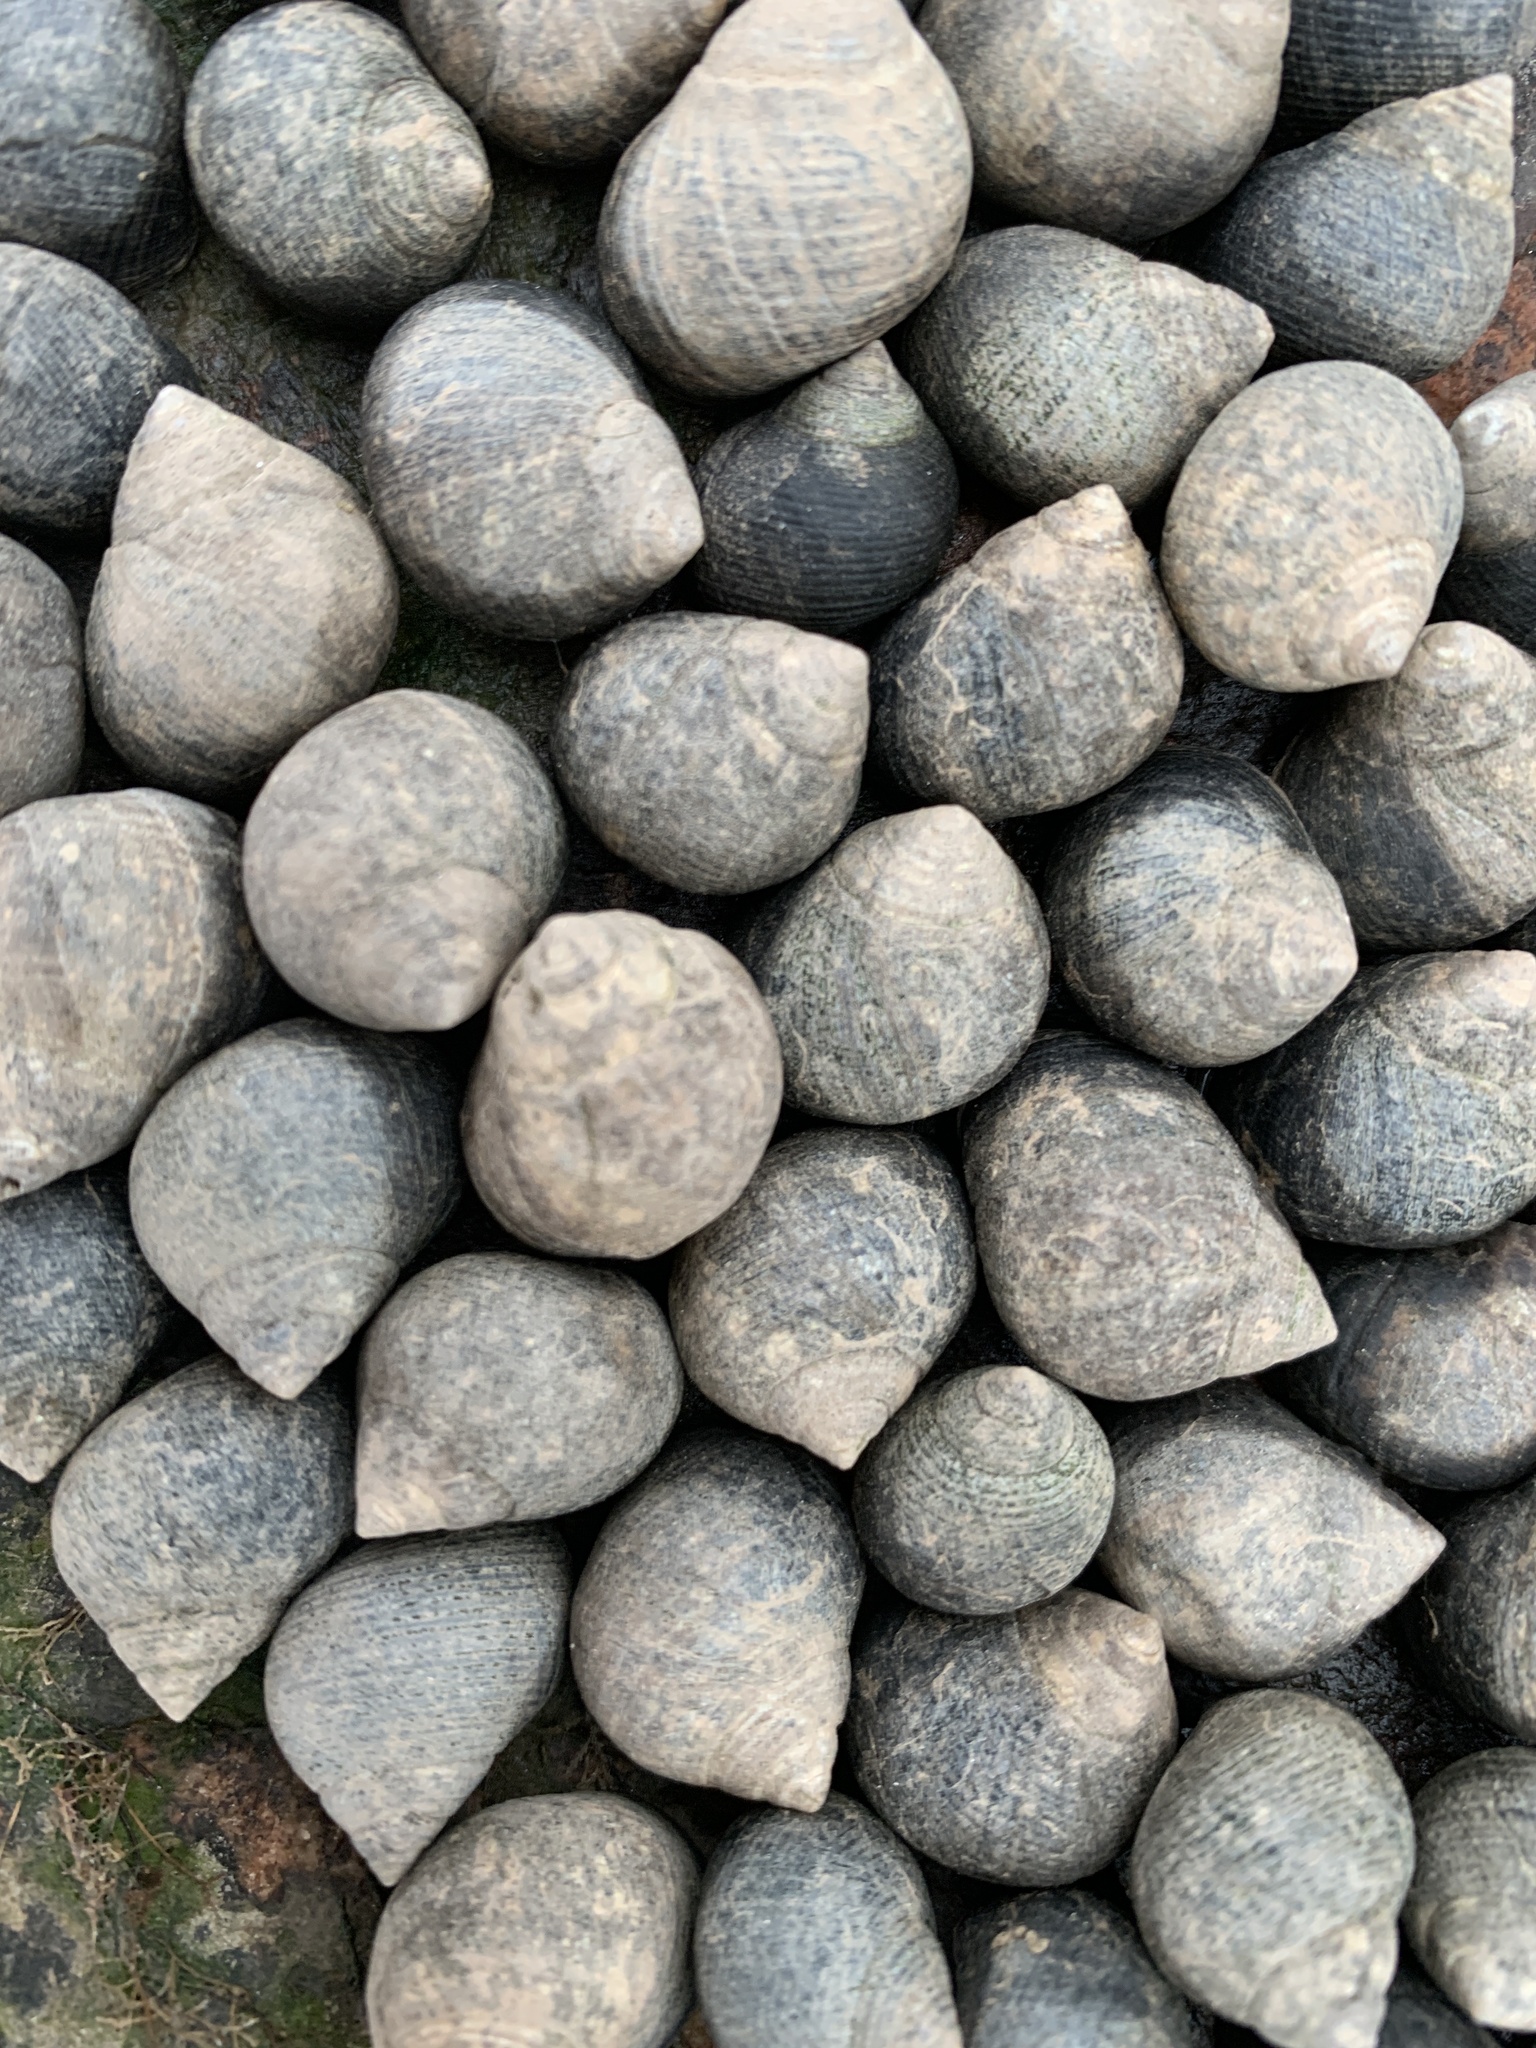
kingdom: Animalia
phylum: Mollusca
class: Gastropoda
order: Littorinimorpha
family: Littorinidae
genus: Littorina
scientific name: Littorina littorea
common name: Common periwinkle
